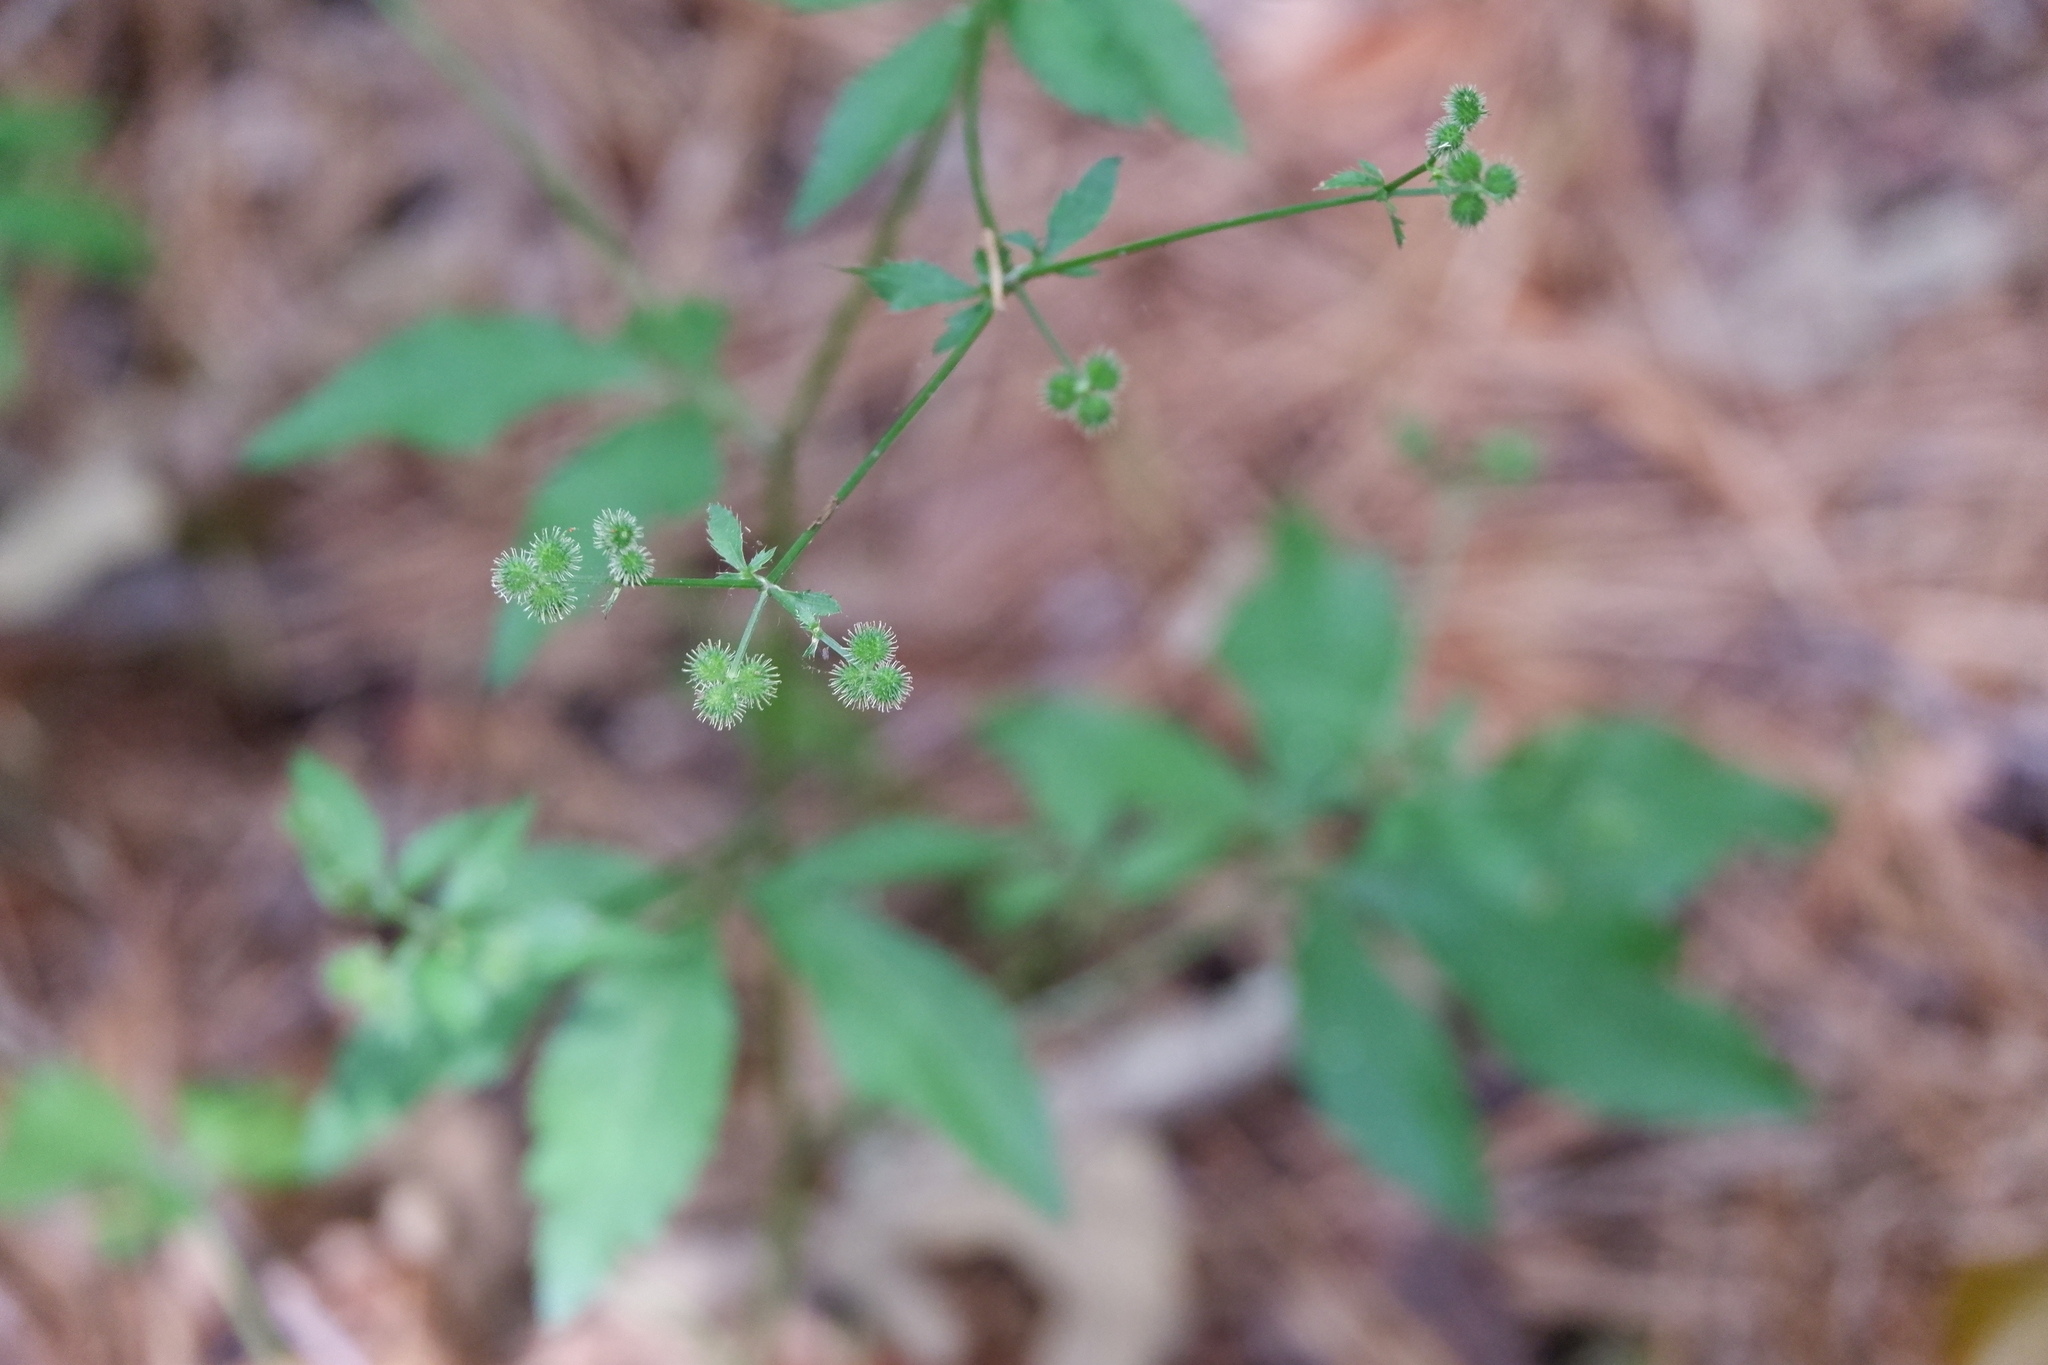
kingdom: Plantae
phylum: Tracheophyta
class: Magnoliopsida
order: Apiales
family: Apiaceae
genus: Sanicula
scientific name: Sanicula canadensis
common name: Canada sanicle
